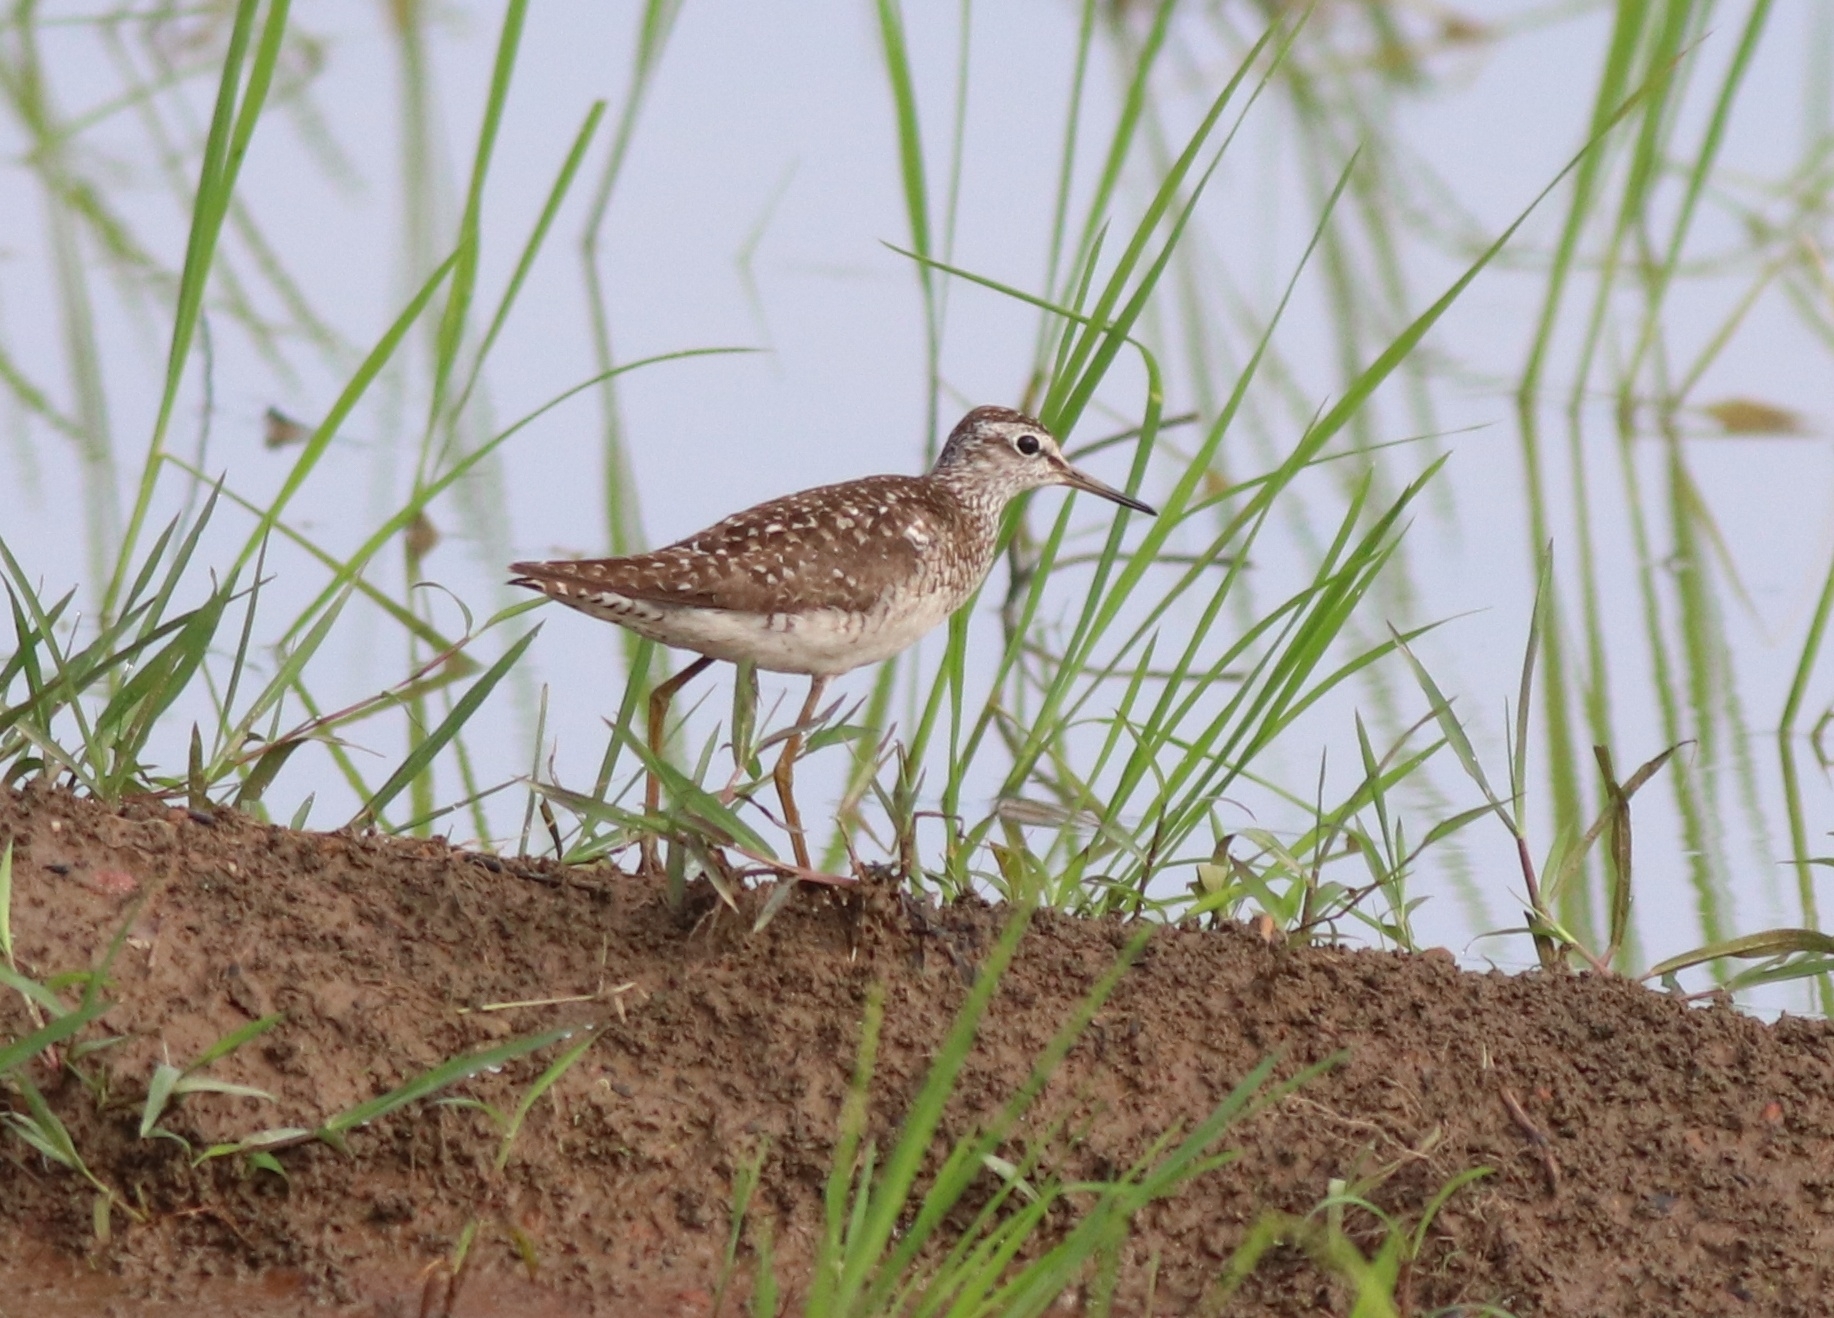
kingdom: Animalia
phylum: Chordata
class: Aves
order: Charadriiformes
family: Scolopacidae
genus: Tringa
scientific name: Tringa glareola
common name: Wood sandpiper
